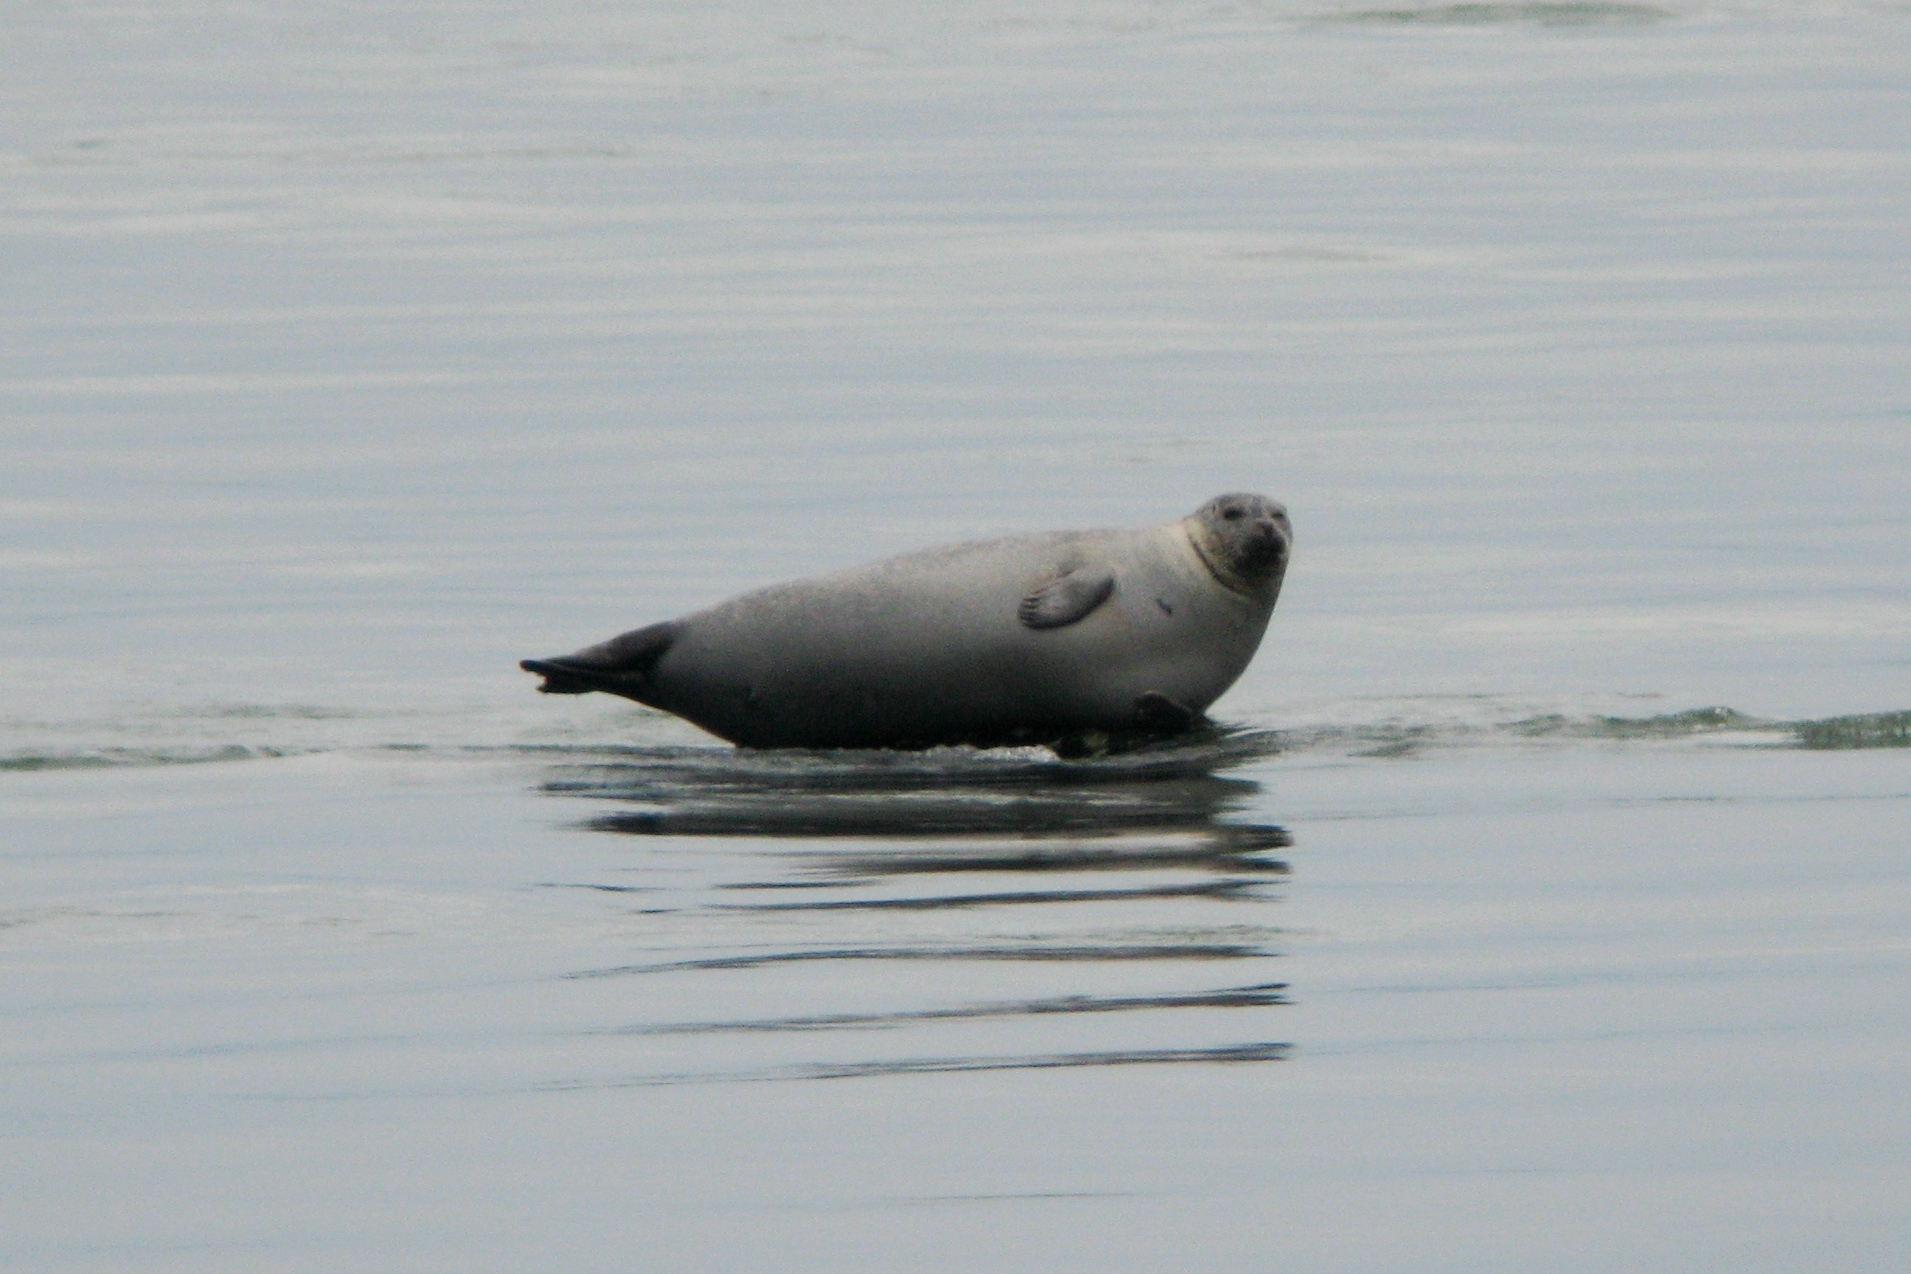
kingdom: Animalia
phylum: Chordata
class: Mammalia
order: Carnivora
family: Phocidae
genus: Phoca
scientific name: Phoca vitulina
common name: Harbor seal
